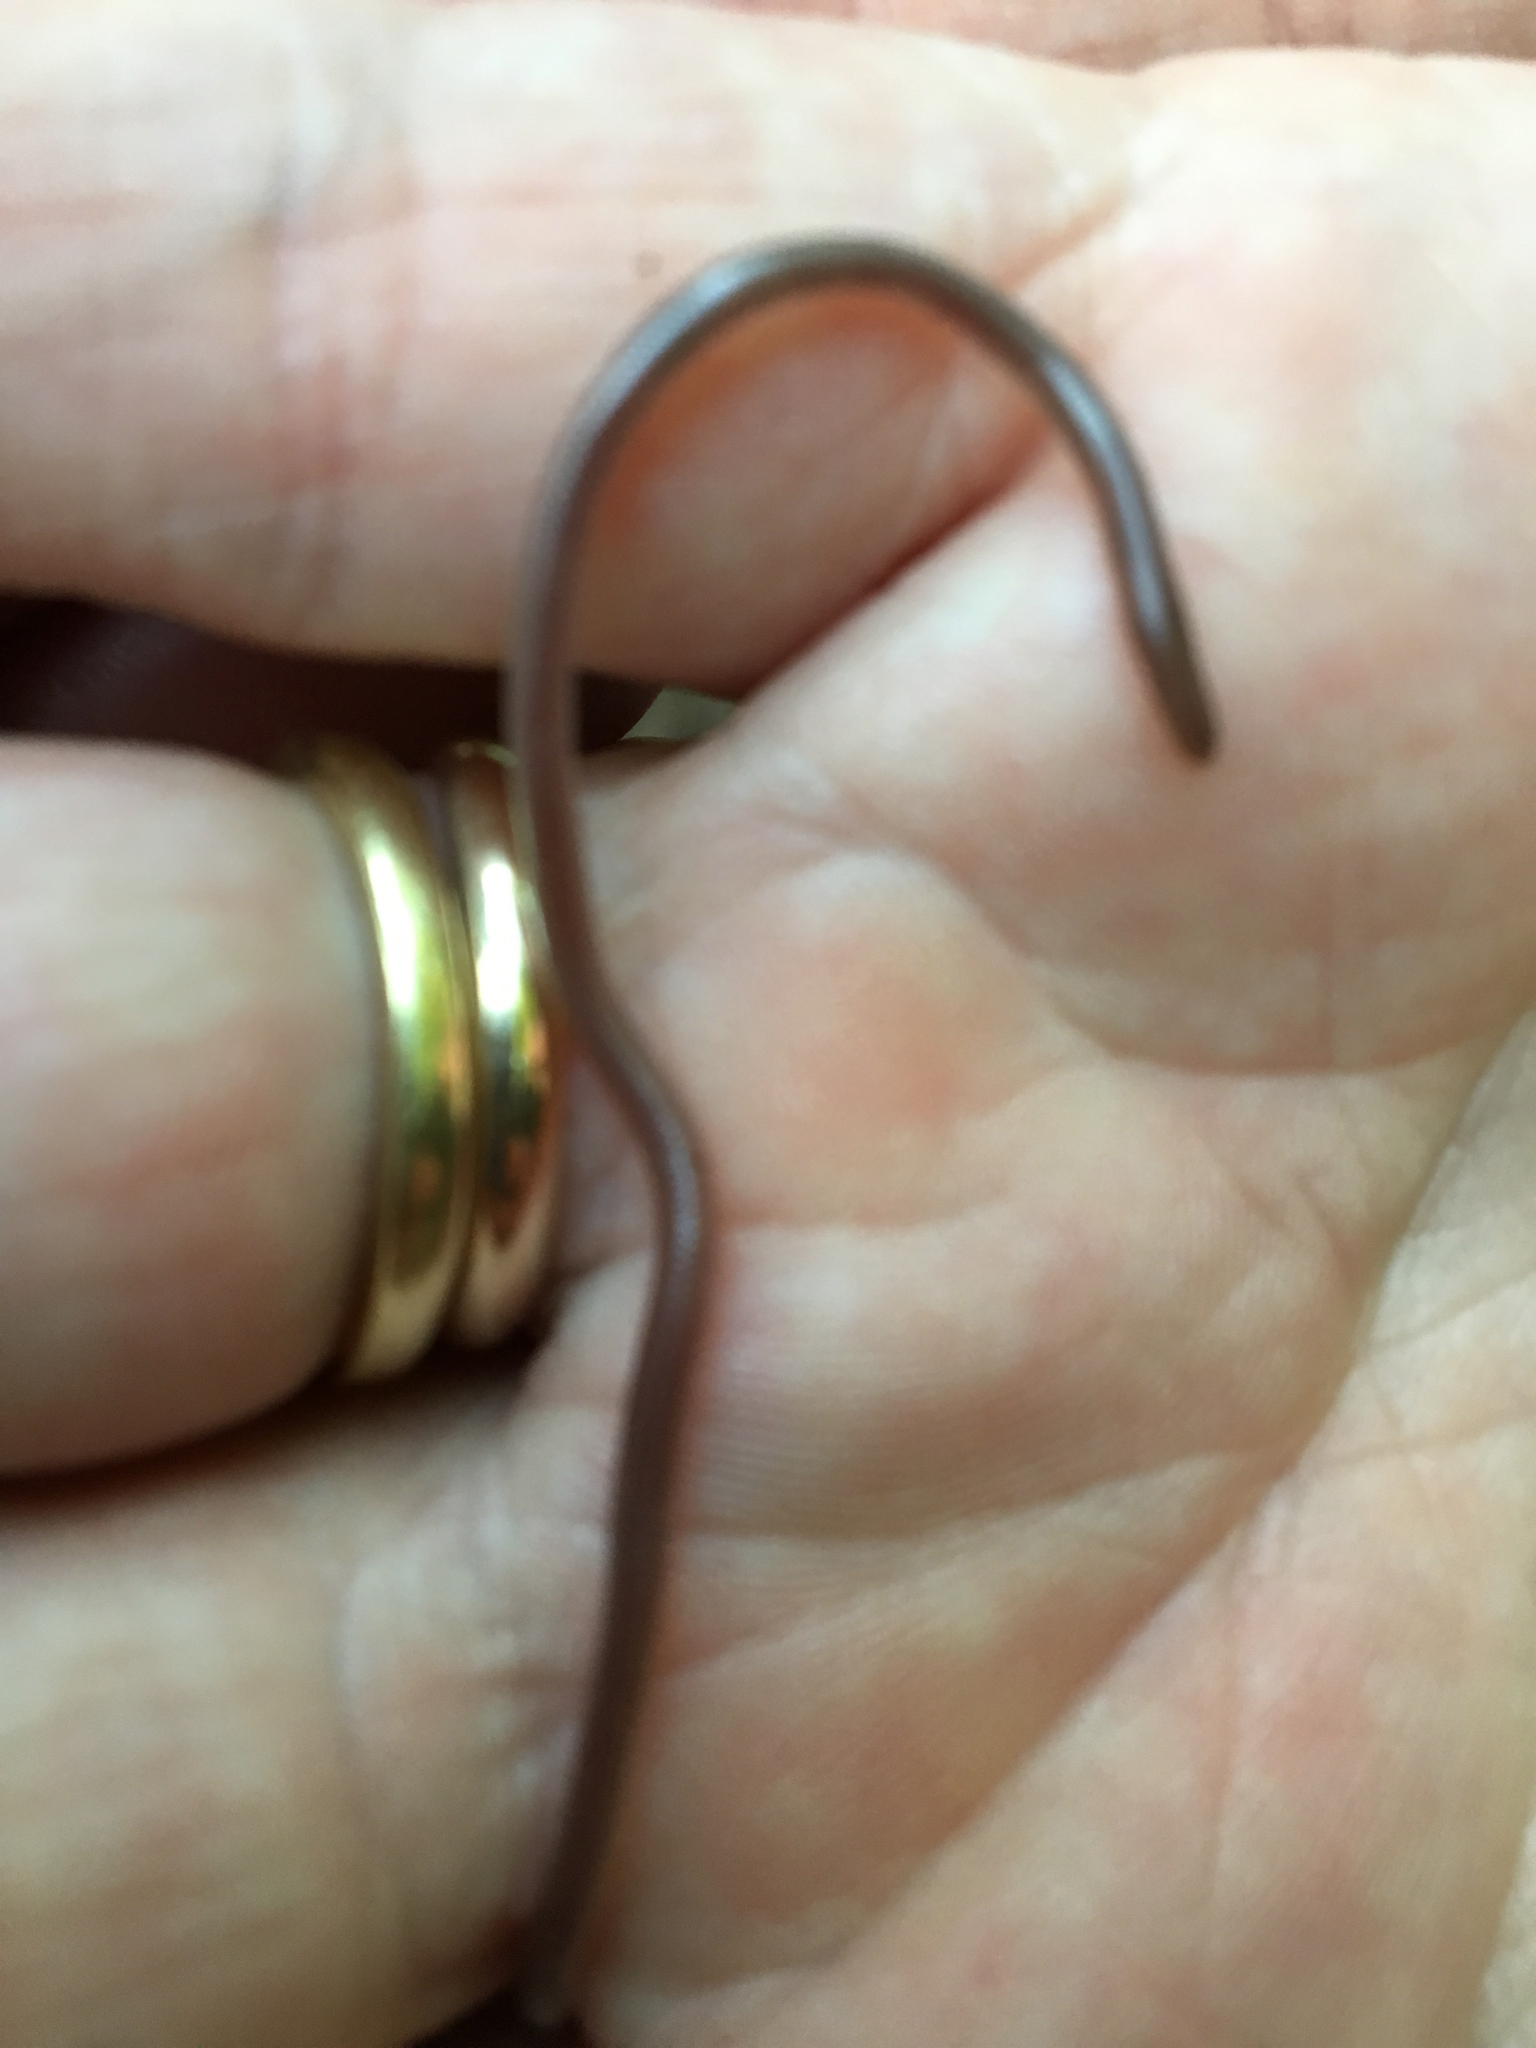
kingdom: Animalia
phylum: Chordata
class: Squamata
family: Leptotyphlopidae
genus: Rena
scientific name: Rena dulcis
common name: Texas blind snake
